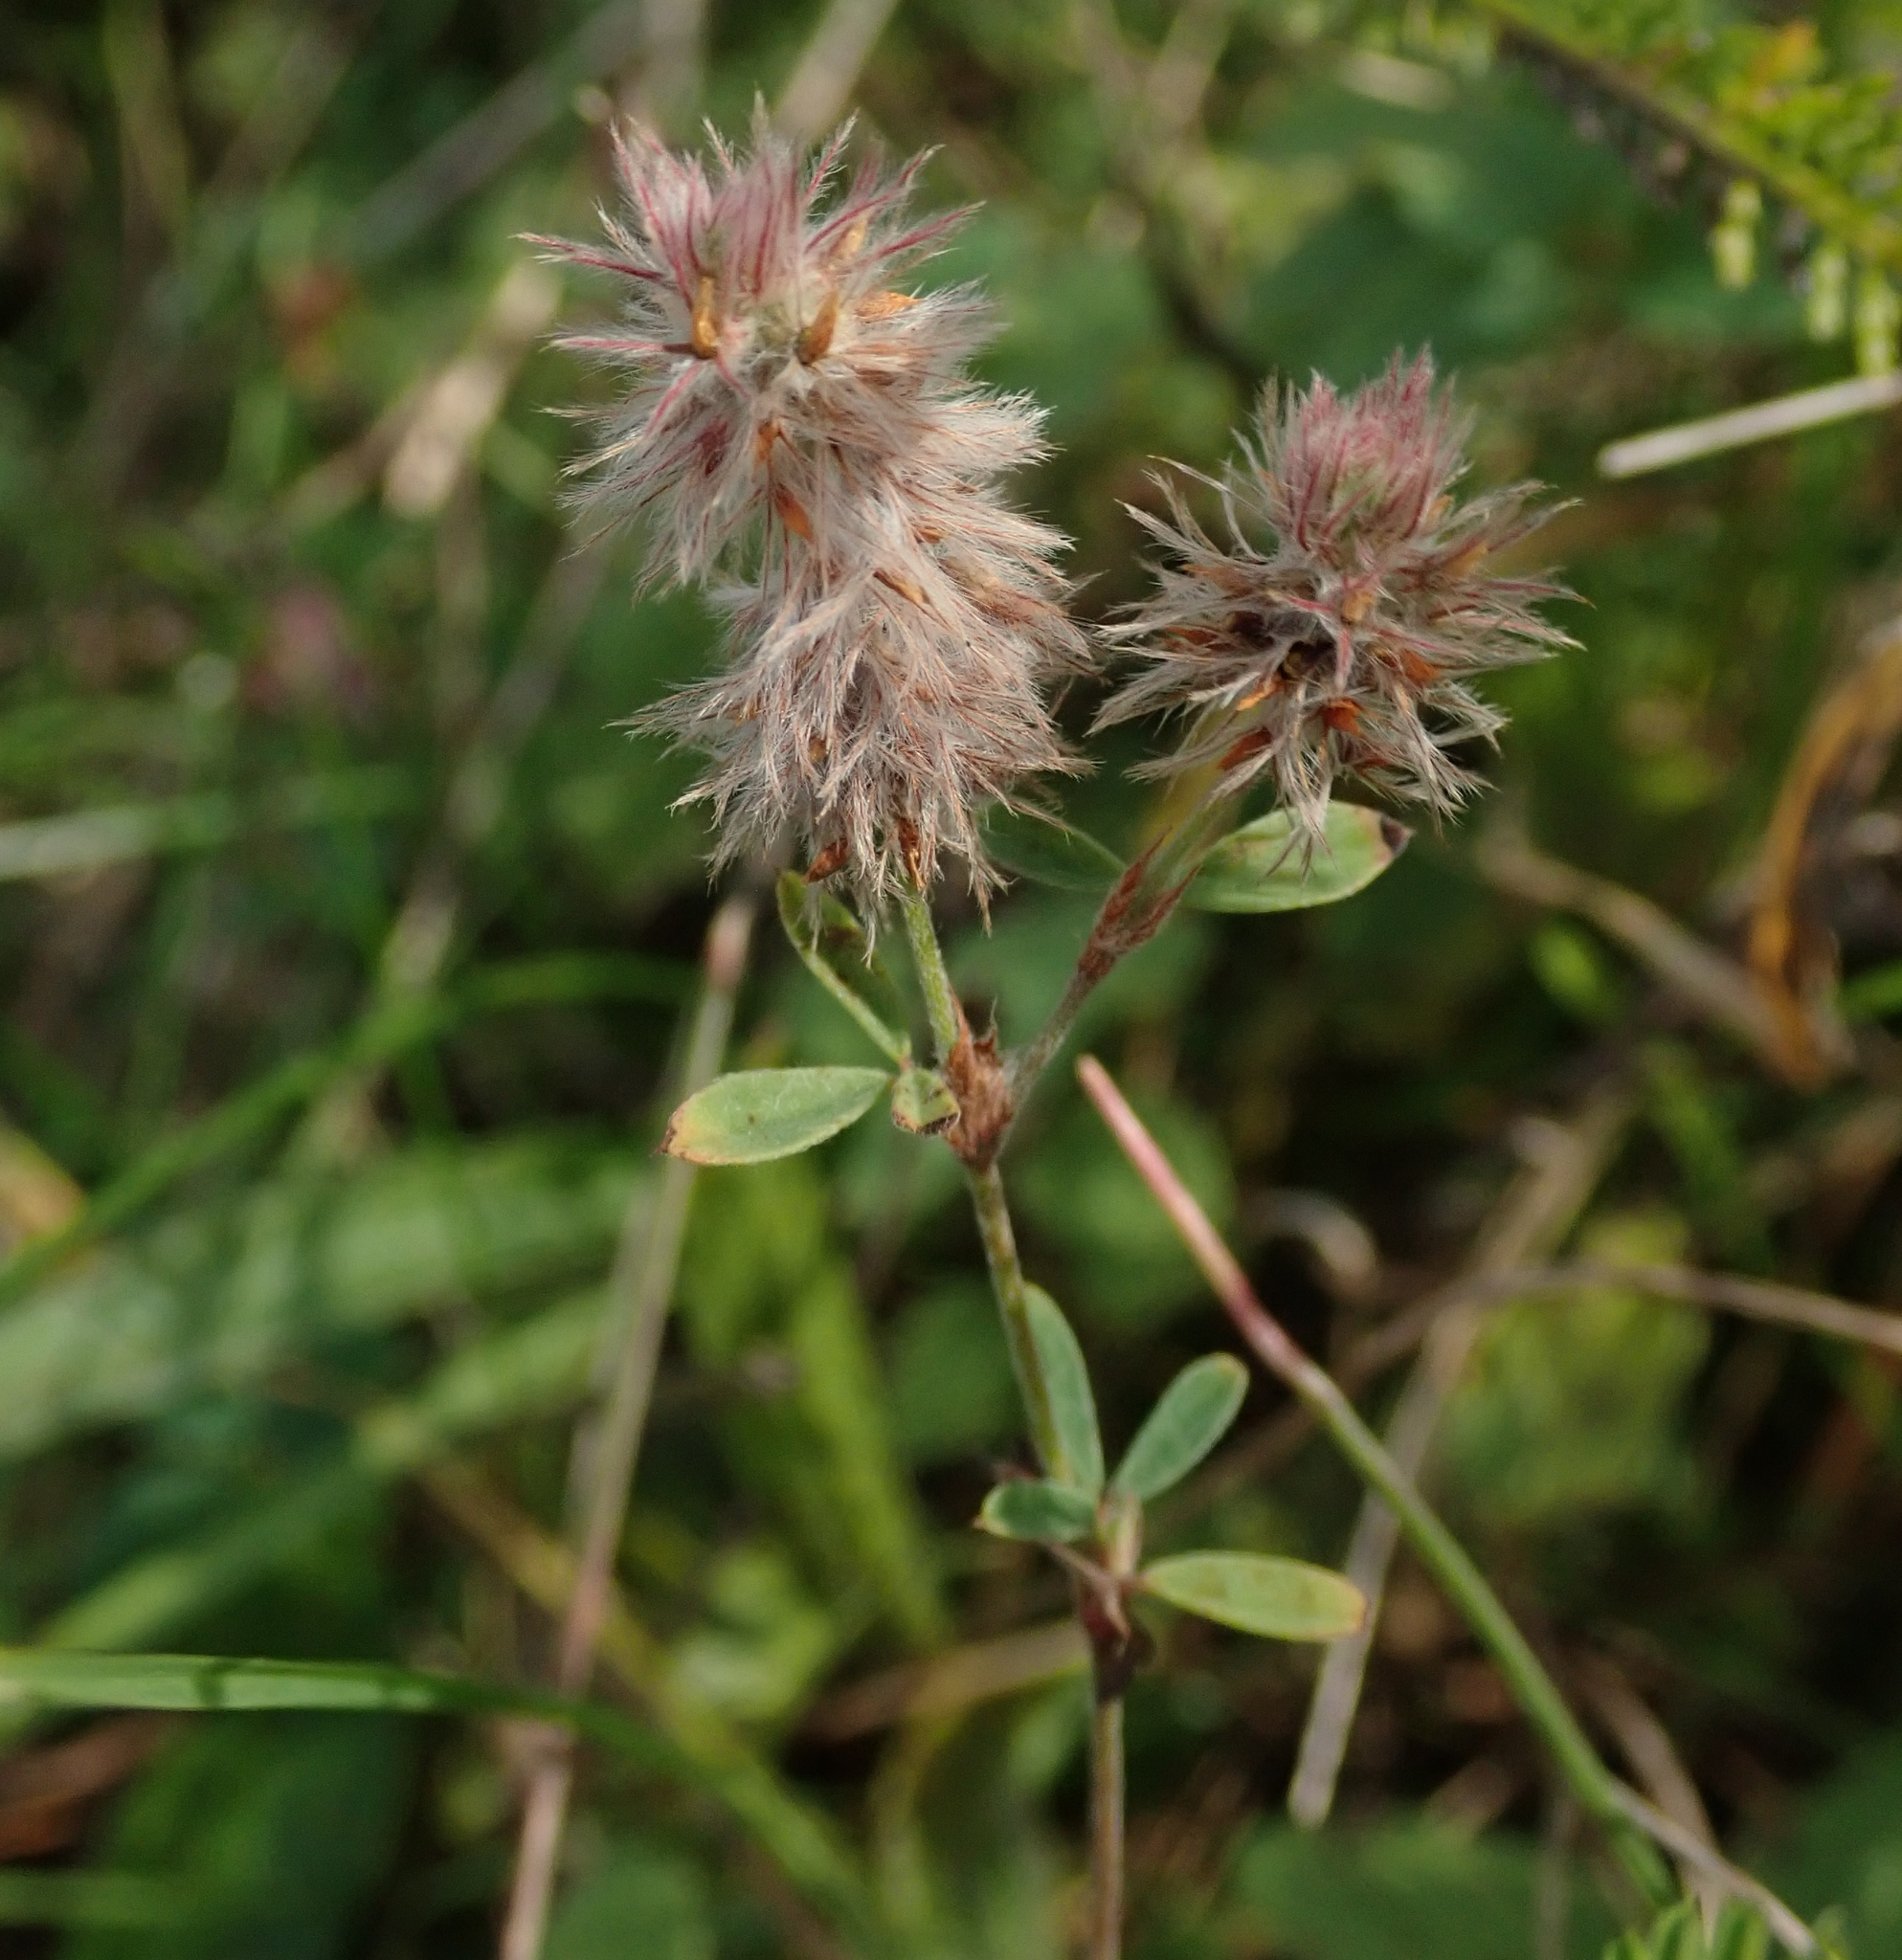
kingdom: Plantae
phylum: Tracheophyta
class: Magnoliopsida
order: Fabales
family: Fabaceae
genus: Trifolium
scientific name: Trifolium arvense
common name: Hare's-foot clover
